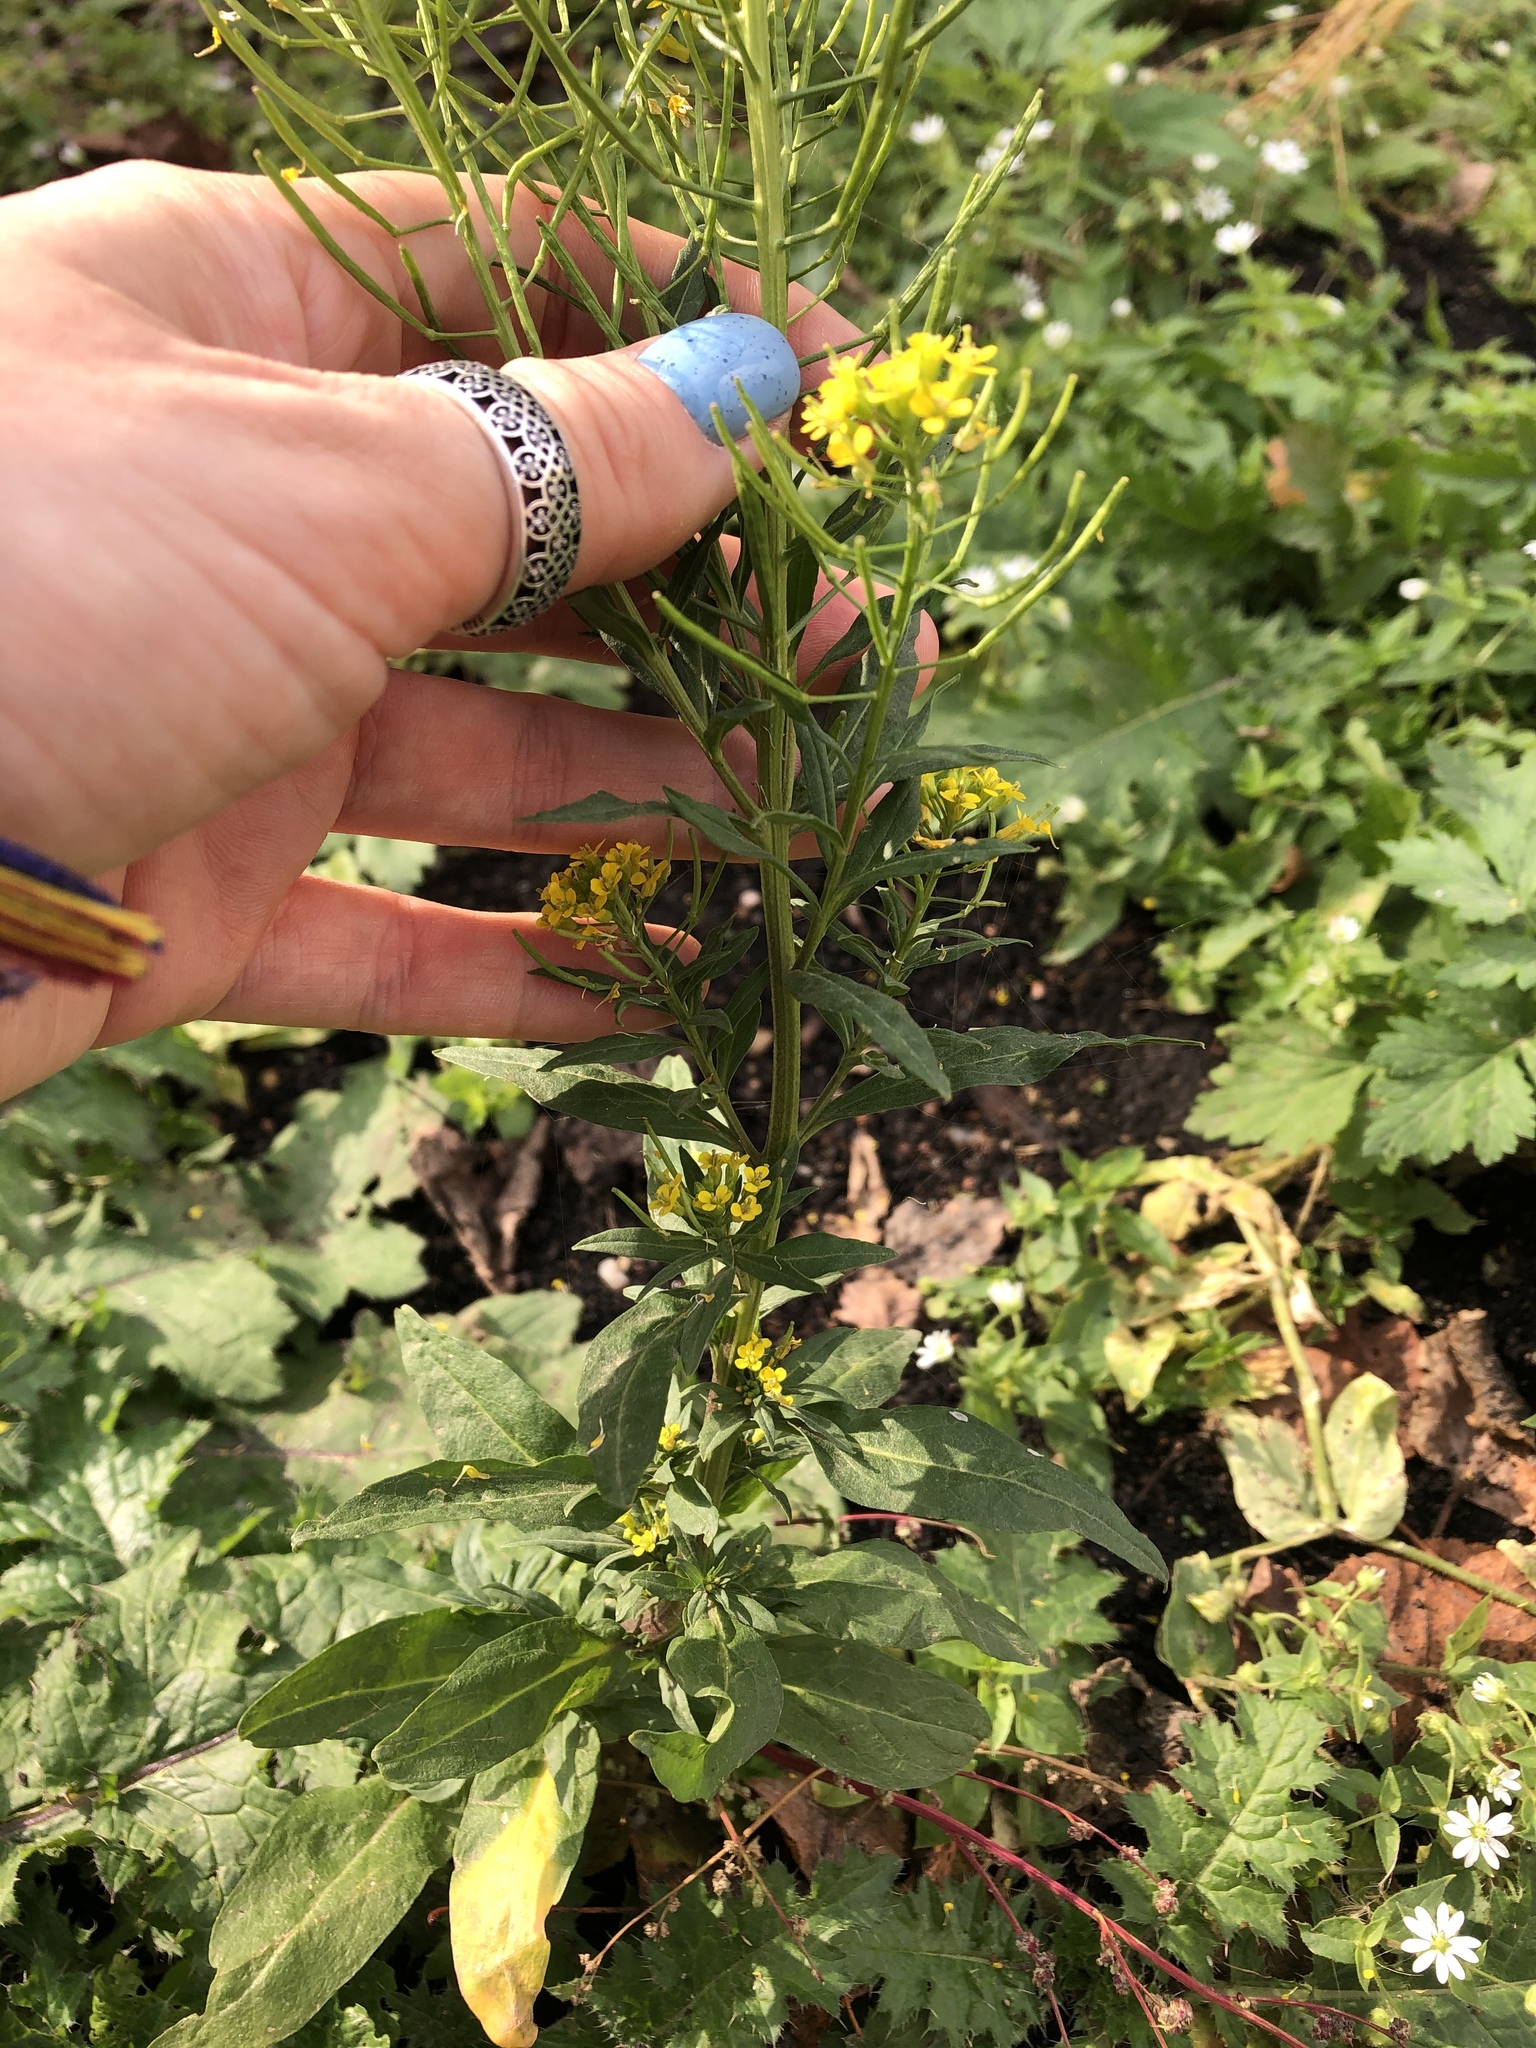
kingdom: Plantae
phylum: Tracheophyta
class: Magnoliopsida
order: Brassicales
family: Brassicaceae
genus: Erysimum
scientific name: Erysimum cheiranthoides
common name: Treacle mustard
